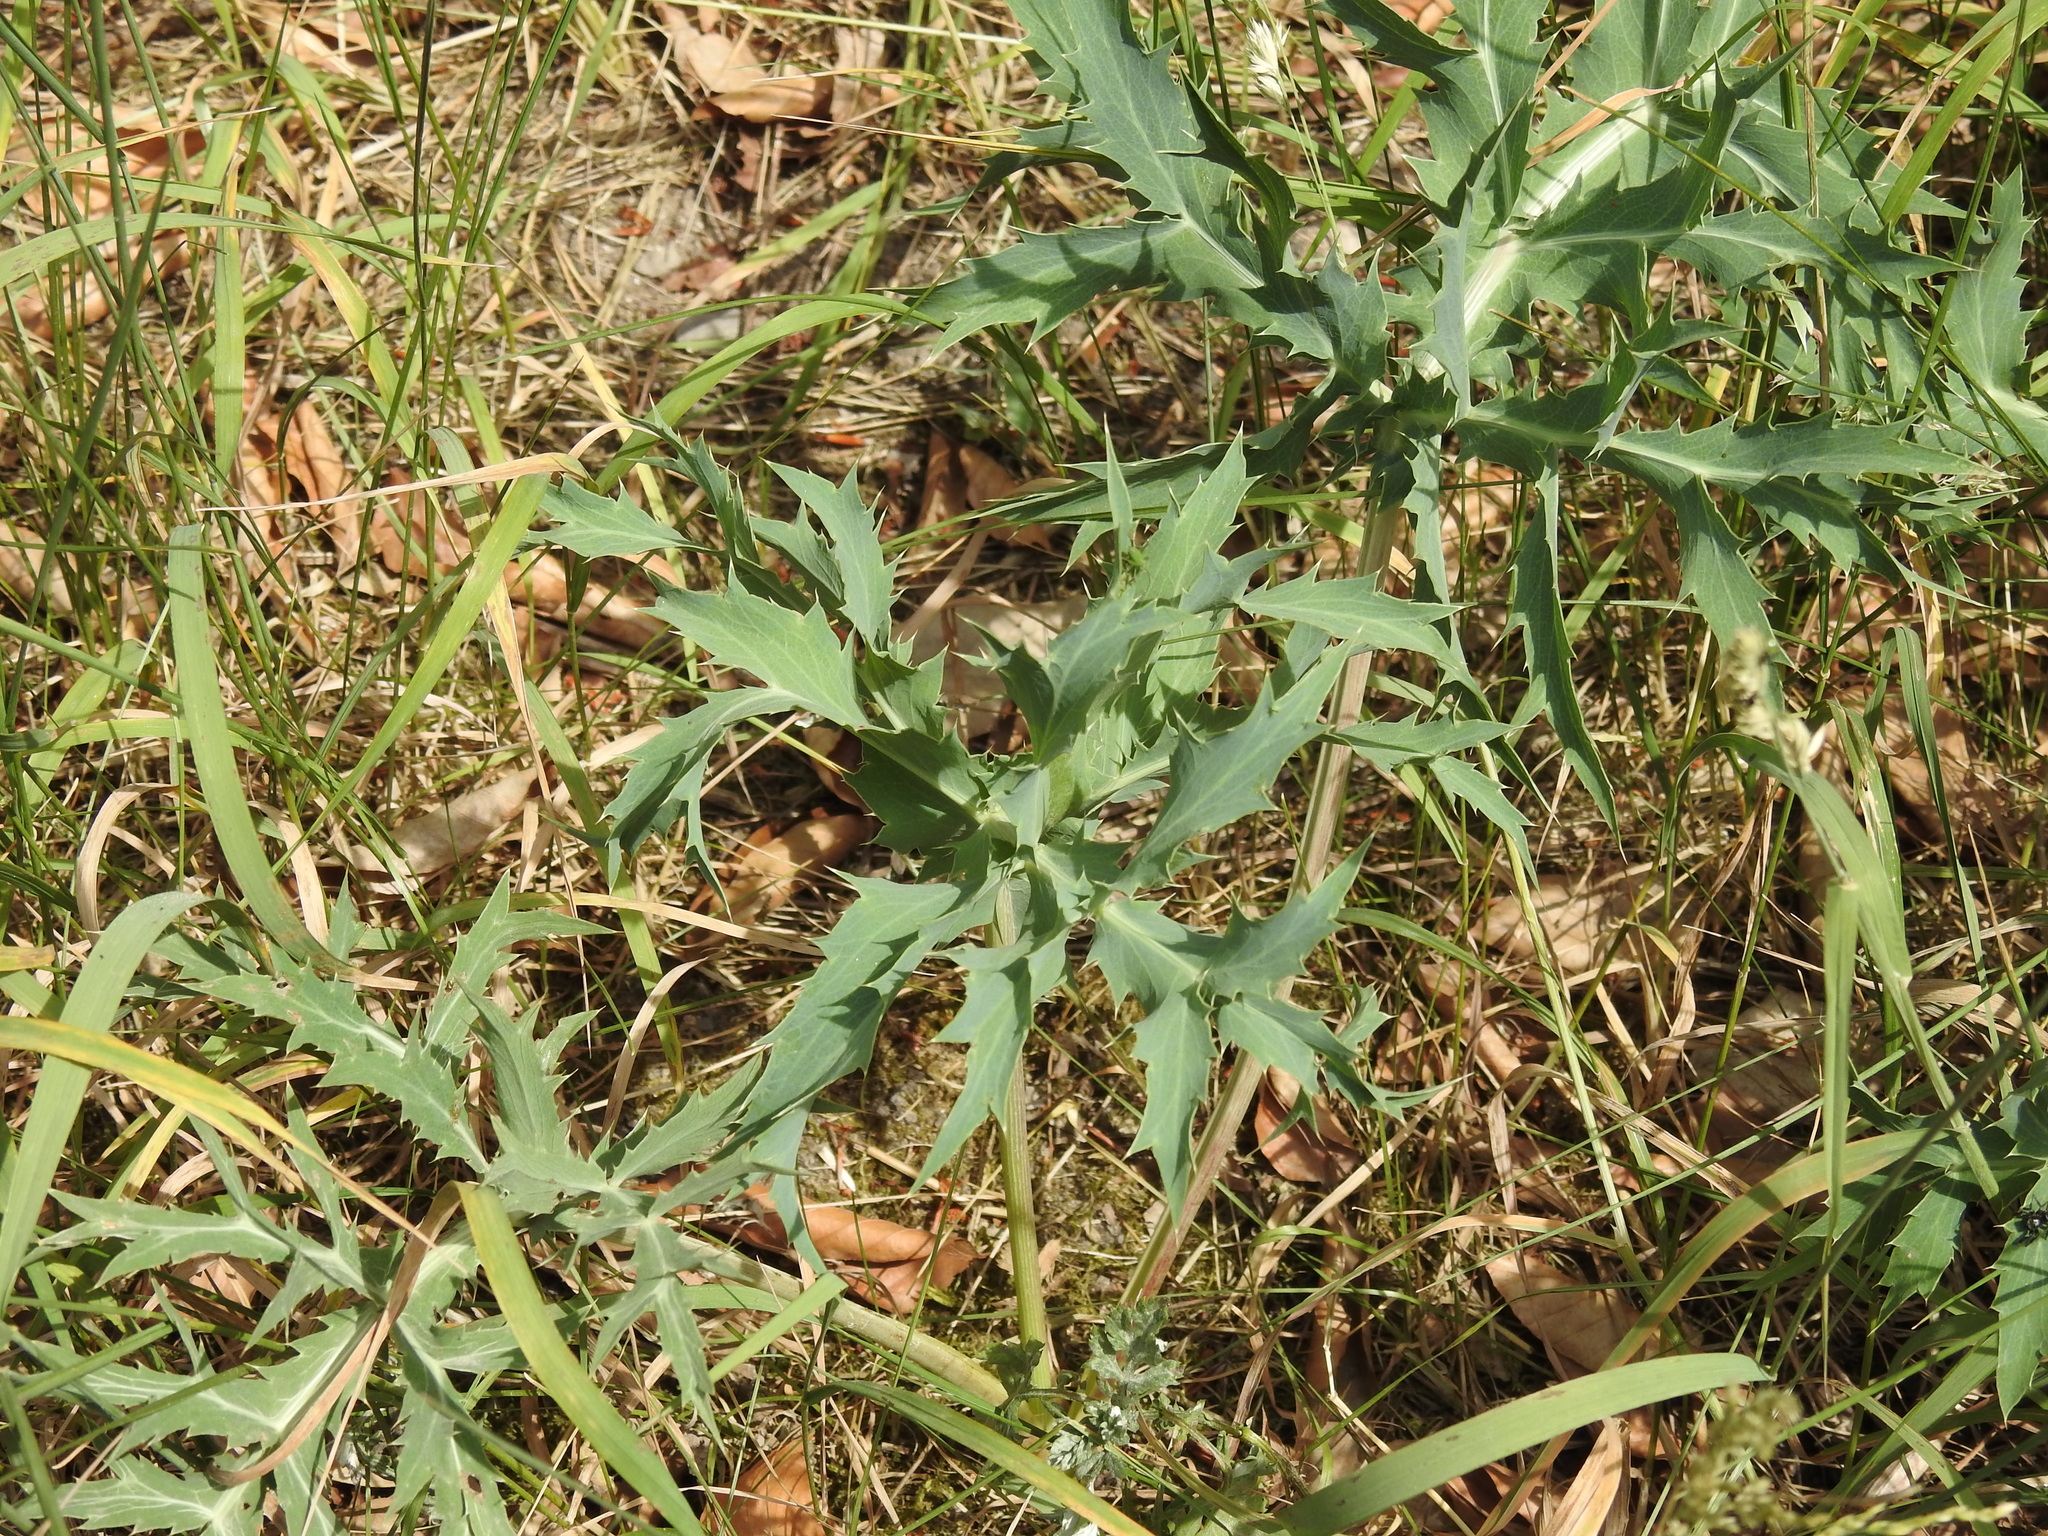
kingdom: Plantae
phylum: Tracheophyta
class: Magnoliopsida
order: Apiales
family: Apiaceae
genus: Eryngium
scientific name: Eryngium campestre
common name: Field eryngo
